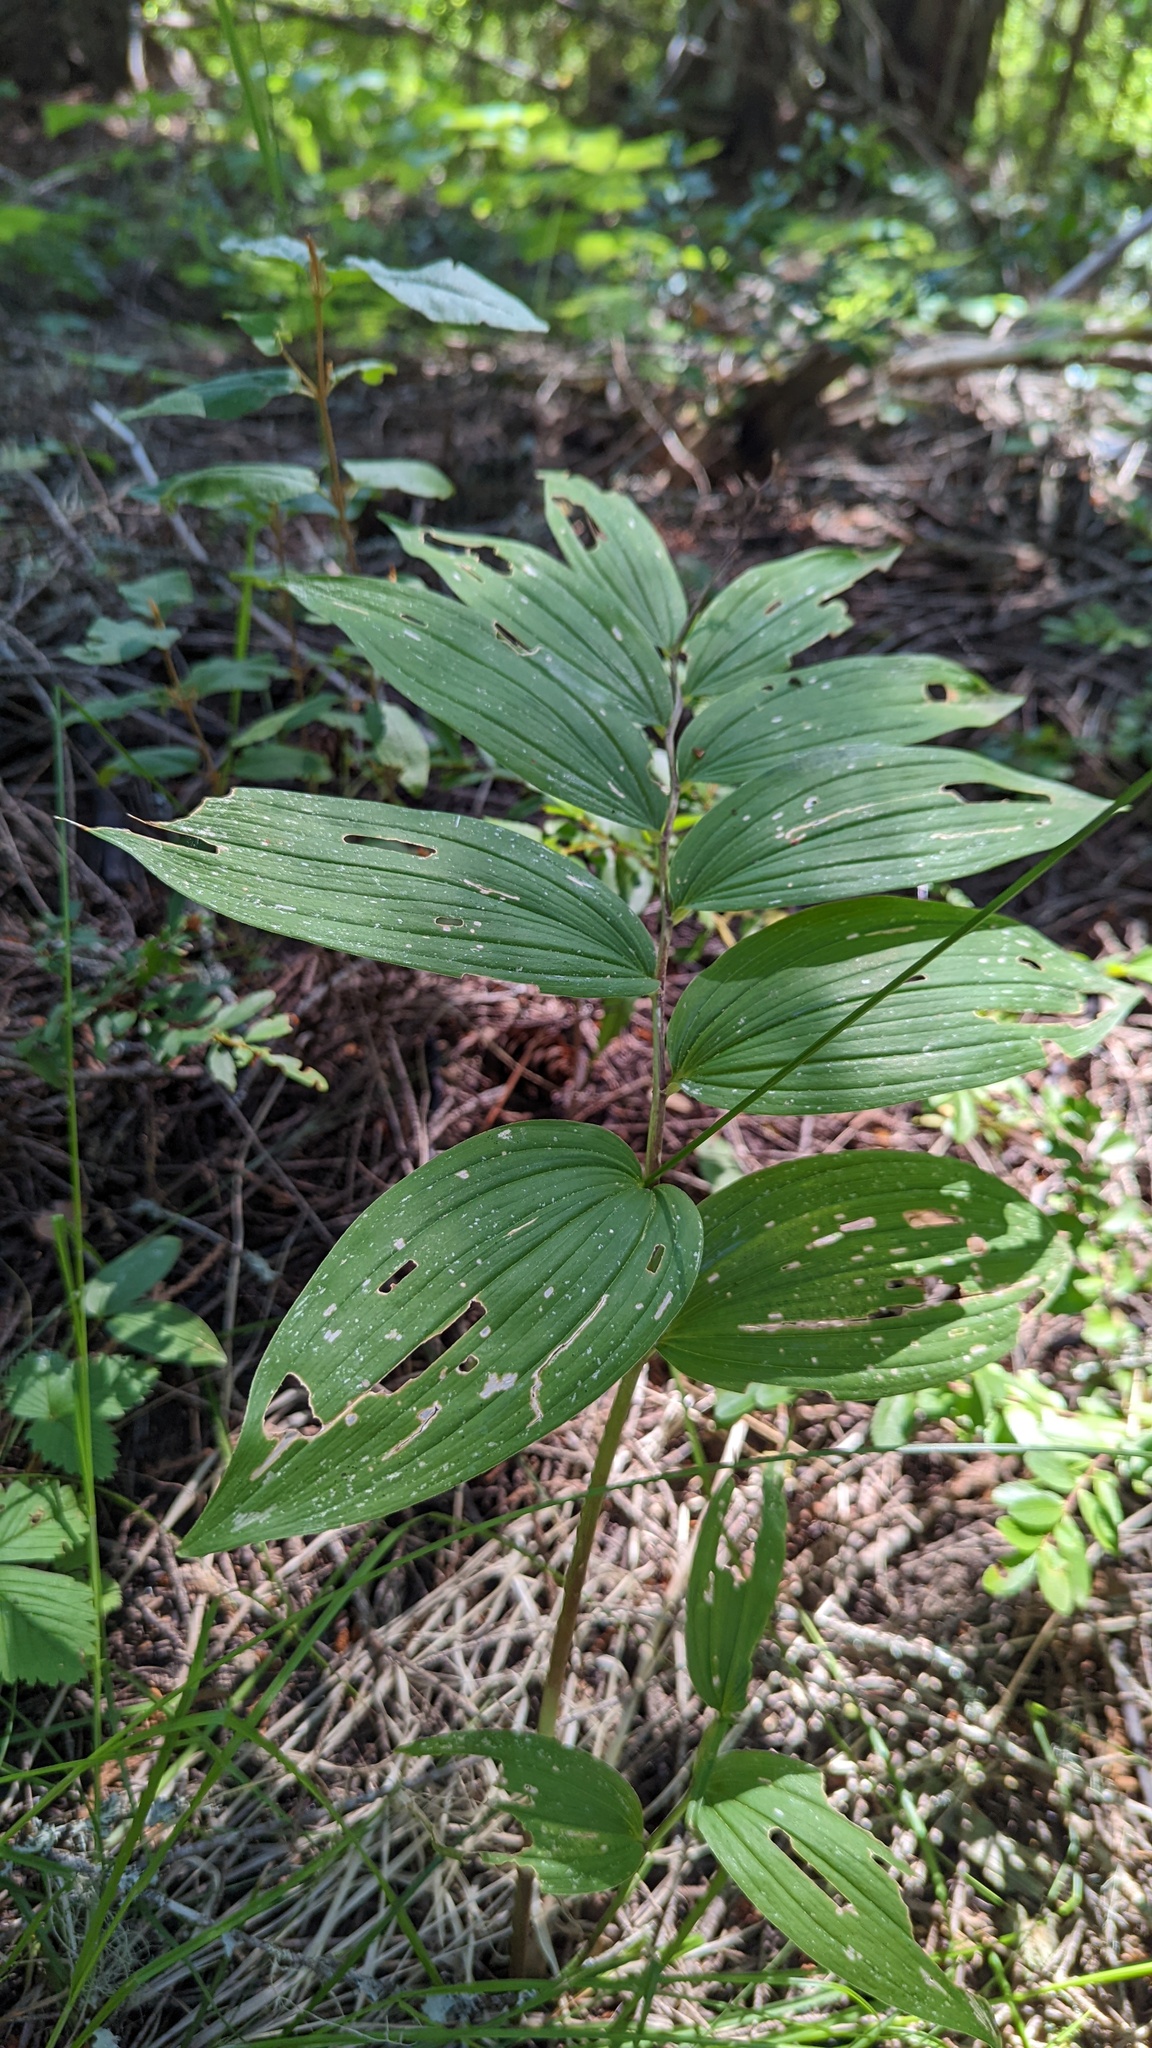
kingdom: Plantae
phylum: Tracheophyta
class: Liliopsida
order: Asparagales
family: Asparagaceae
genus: Maianthemum
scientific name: Maianthemum racemosum
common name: False spikenard
